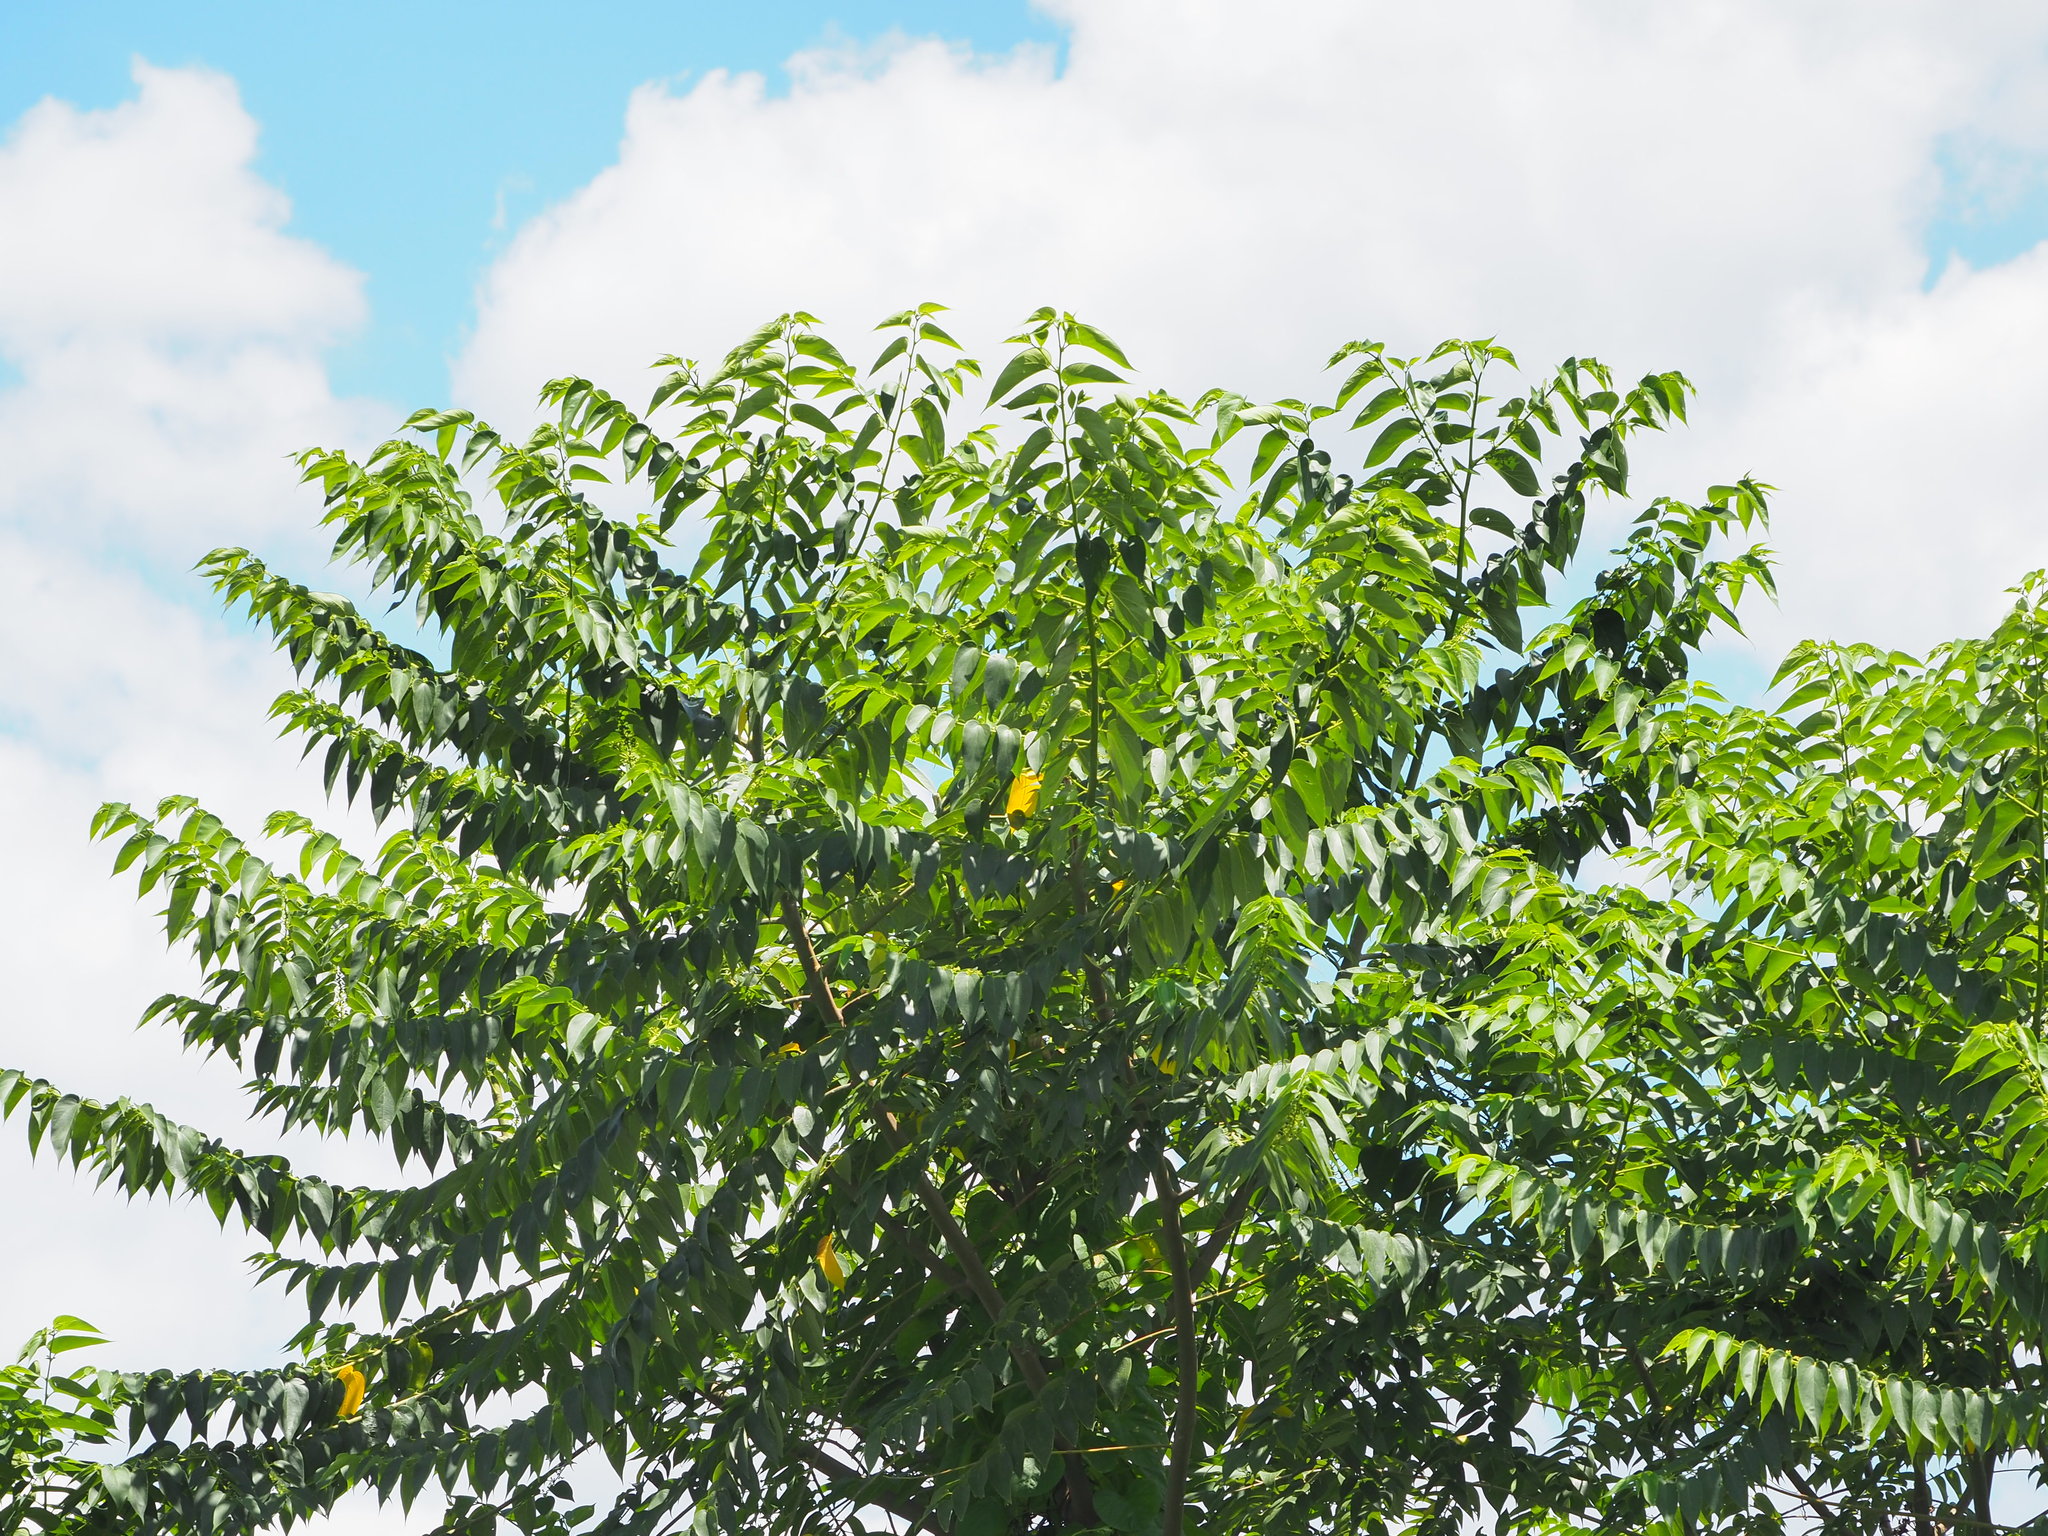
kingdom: Plantae
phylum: Tracheophyta
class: Magnoliopsida
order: Rosales
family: Cannabaceae
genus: Trema
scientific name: Trema orientale
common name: Indian charcoal tree
